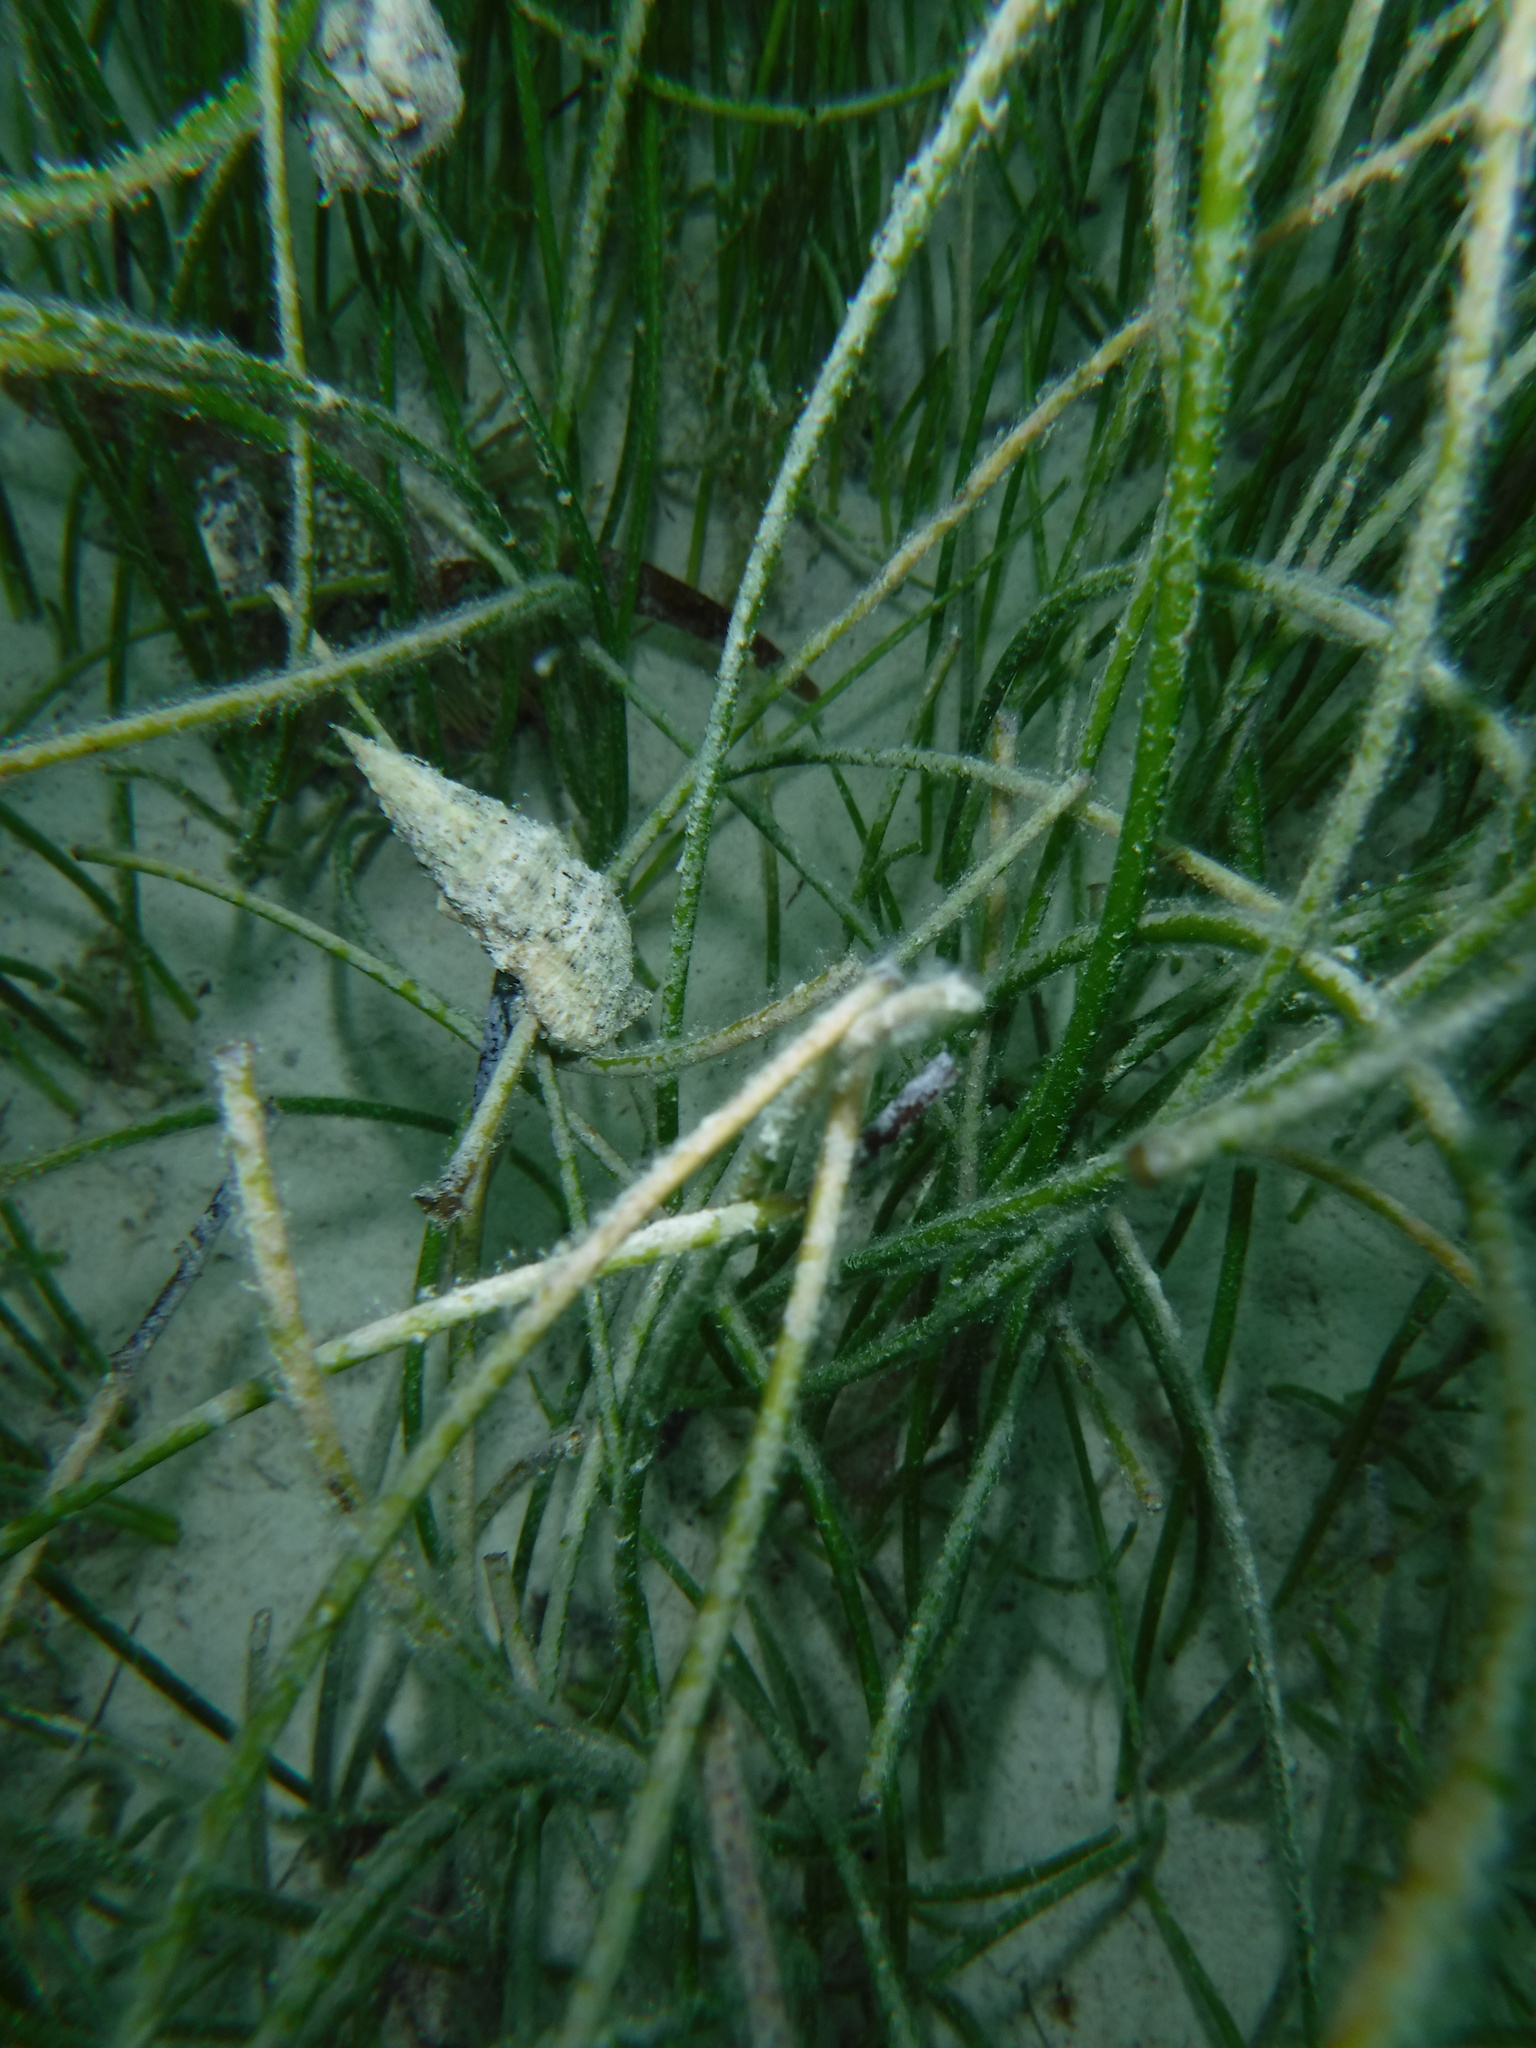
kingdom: Animalia
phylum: Mollusca
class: Gastropoda
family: Cerithiidae
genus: Cerithium
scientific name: Cerithium litteratum
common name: Stocky cerith
